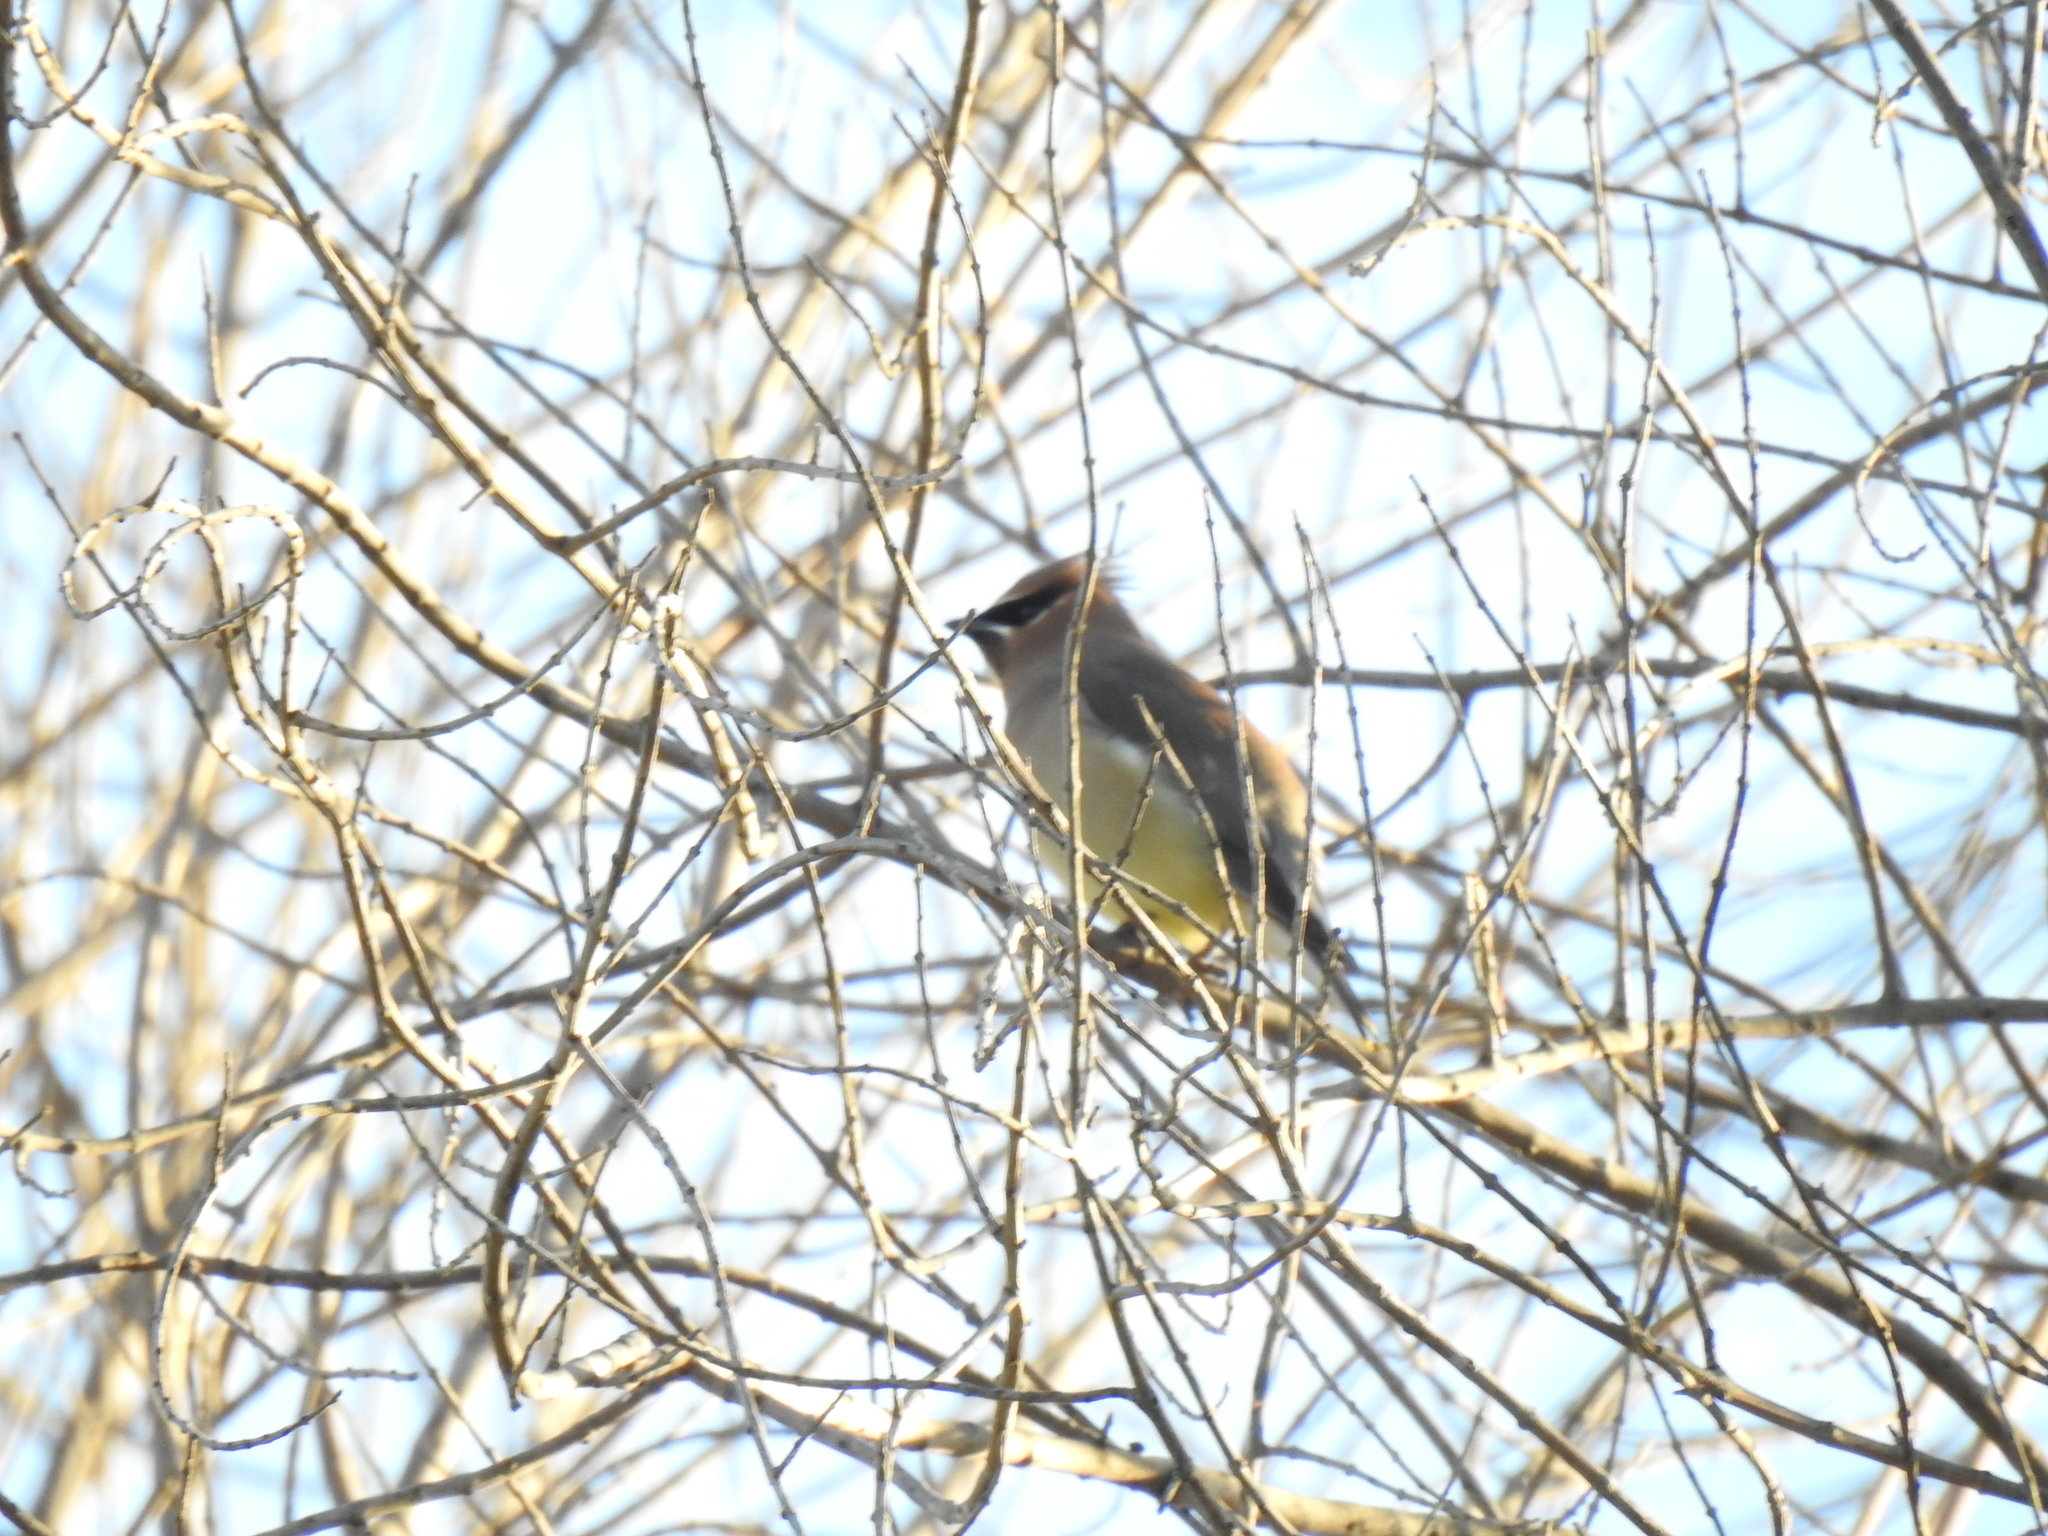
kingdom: Animalia
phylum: Chordata
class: Aves
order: Passeriformes
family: Bombycillidae
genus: Bombycilla
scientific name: Bombycilla cedrorum
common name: Cedar waxwing
